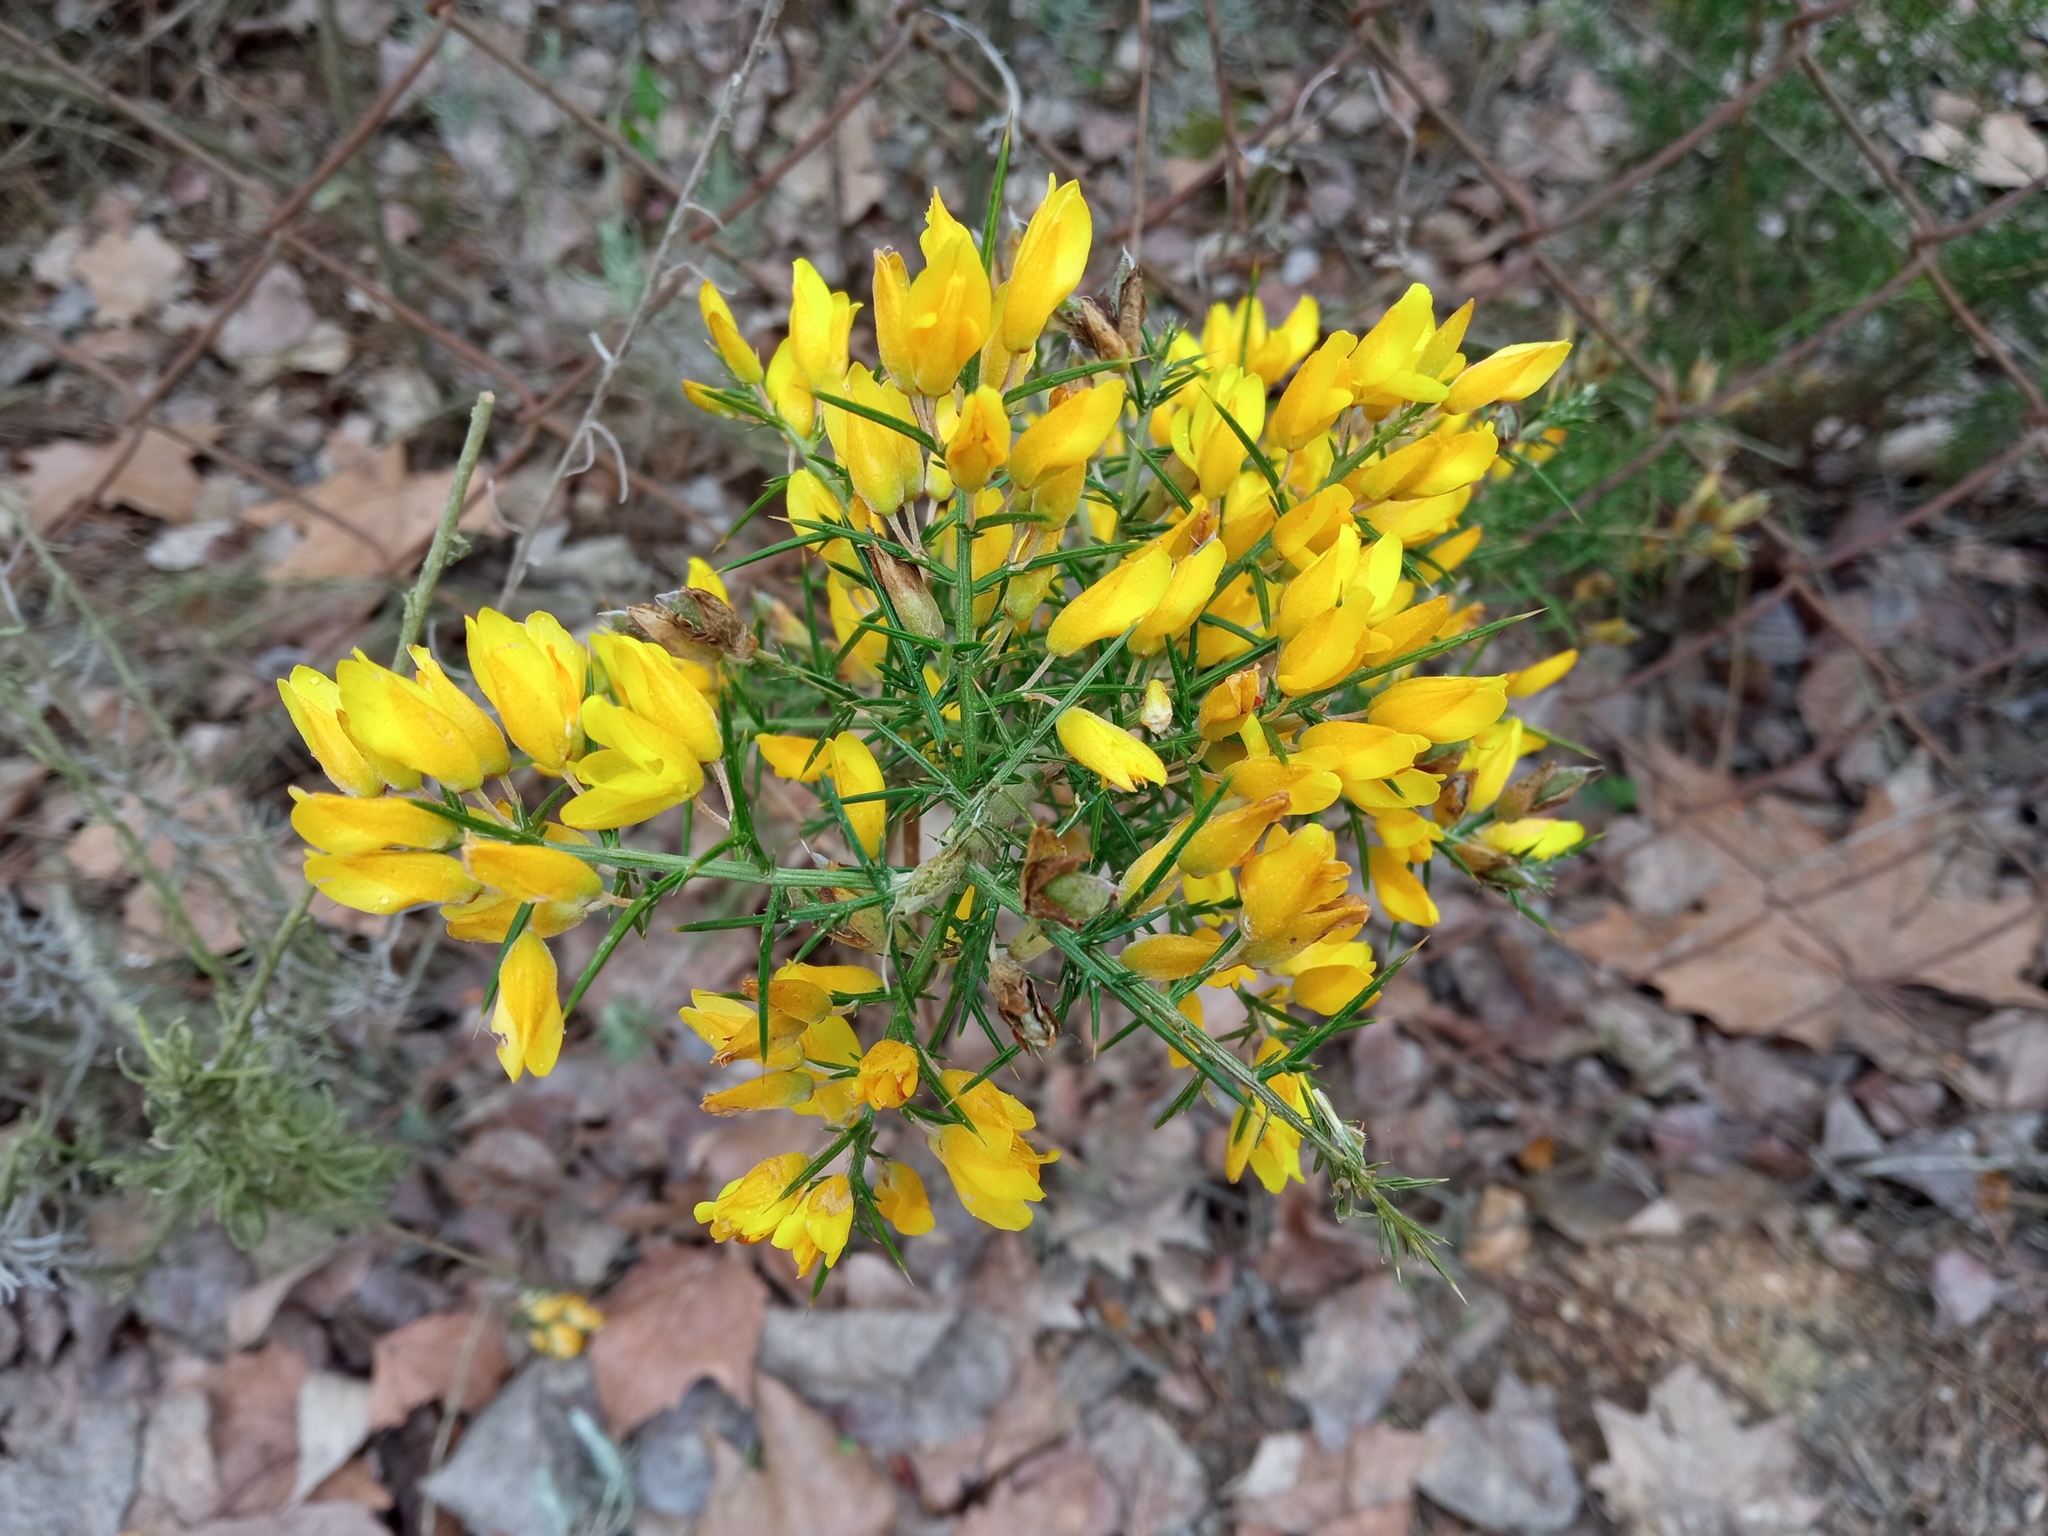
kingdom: Plantae
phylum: Tracheophyta
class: Magnoliopsida
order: Fabales
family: Fabaceae
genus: Ulex
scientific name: Ulex parviflorus
